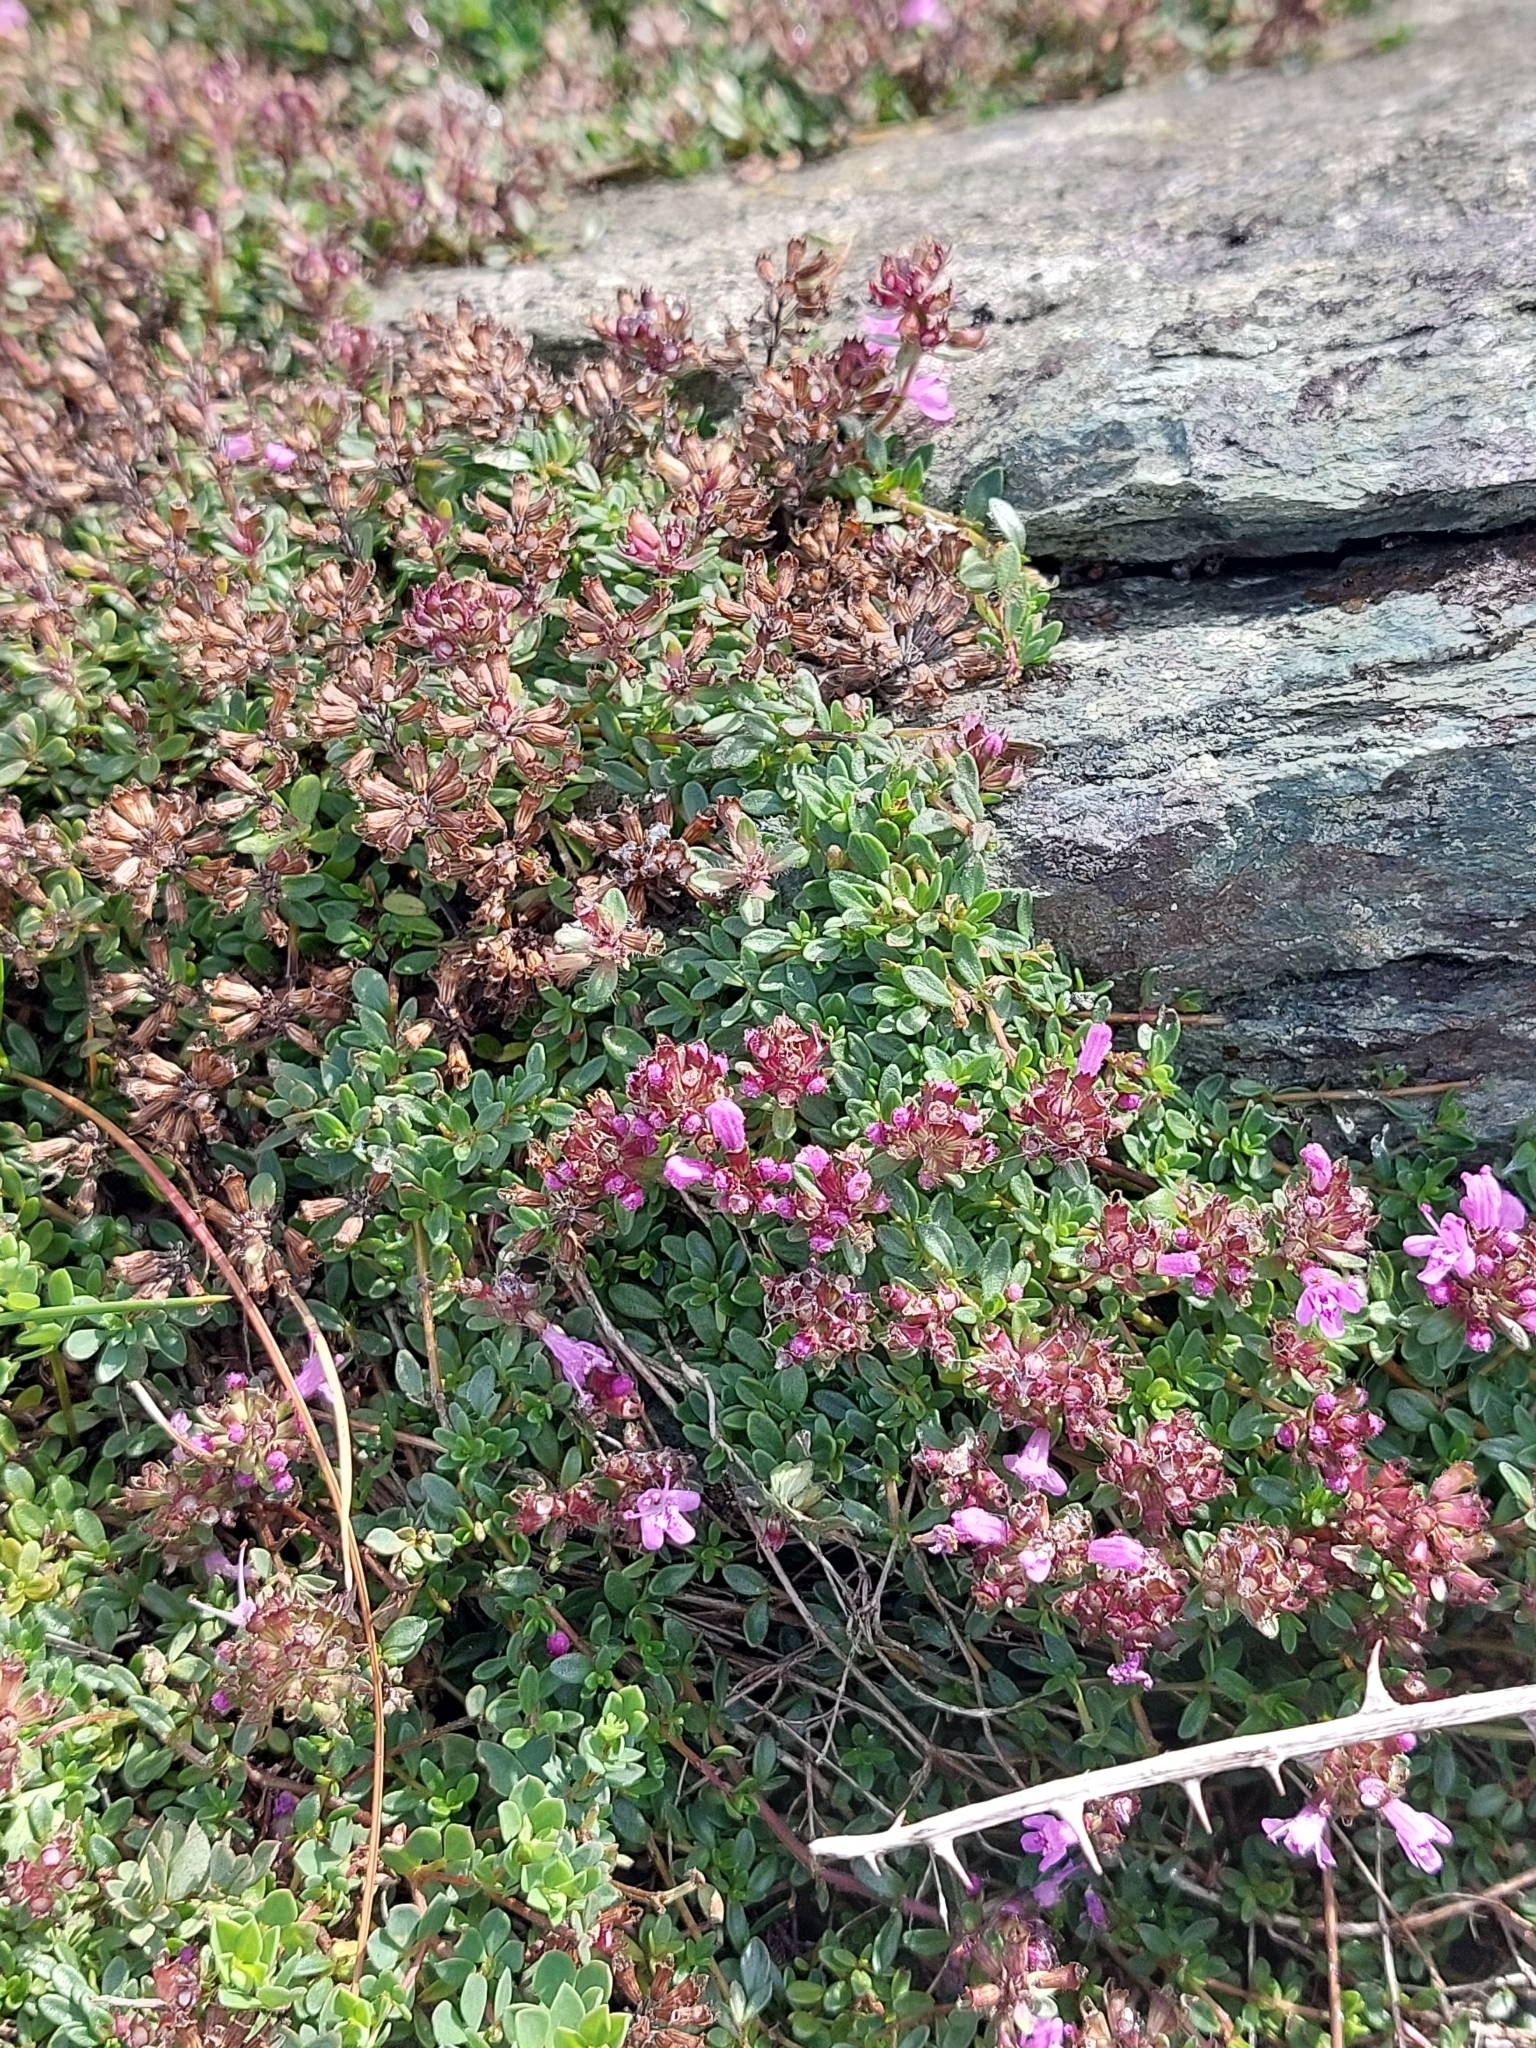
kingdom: Plantae
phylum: Tracheophyta
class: Magnoliopsida
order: Lamiales
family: Lamiaceae
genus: Thymus
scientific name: Thymus praecox
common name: Wild thyme
